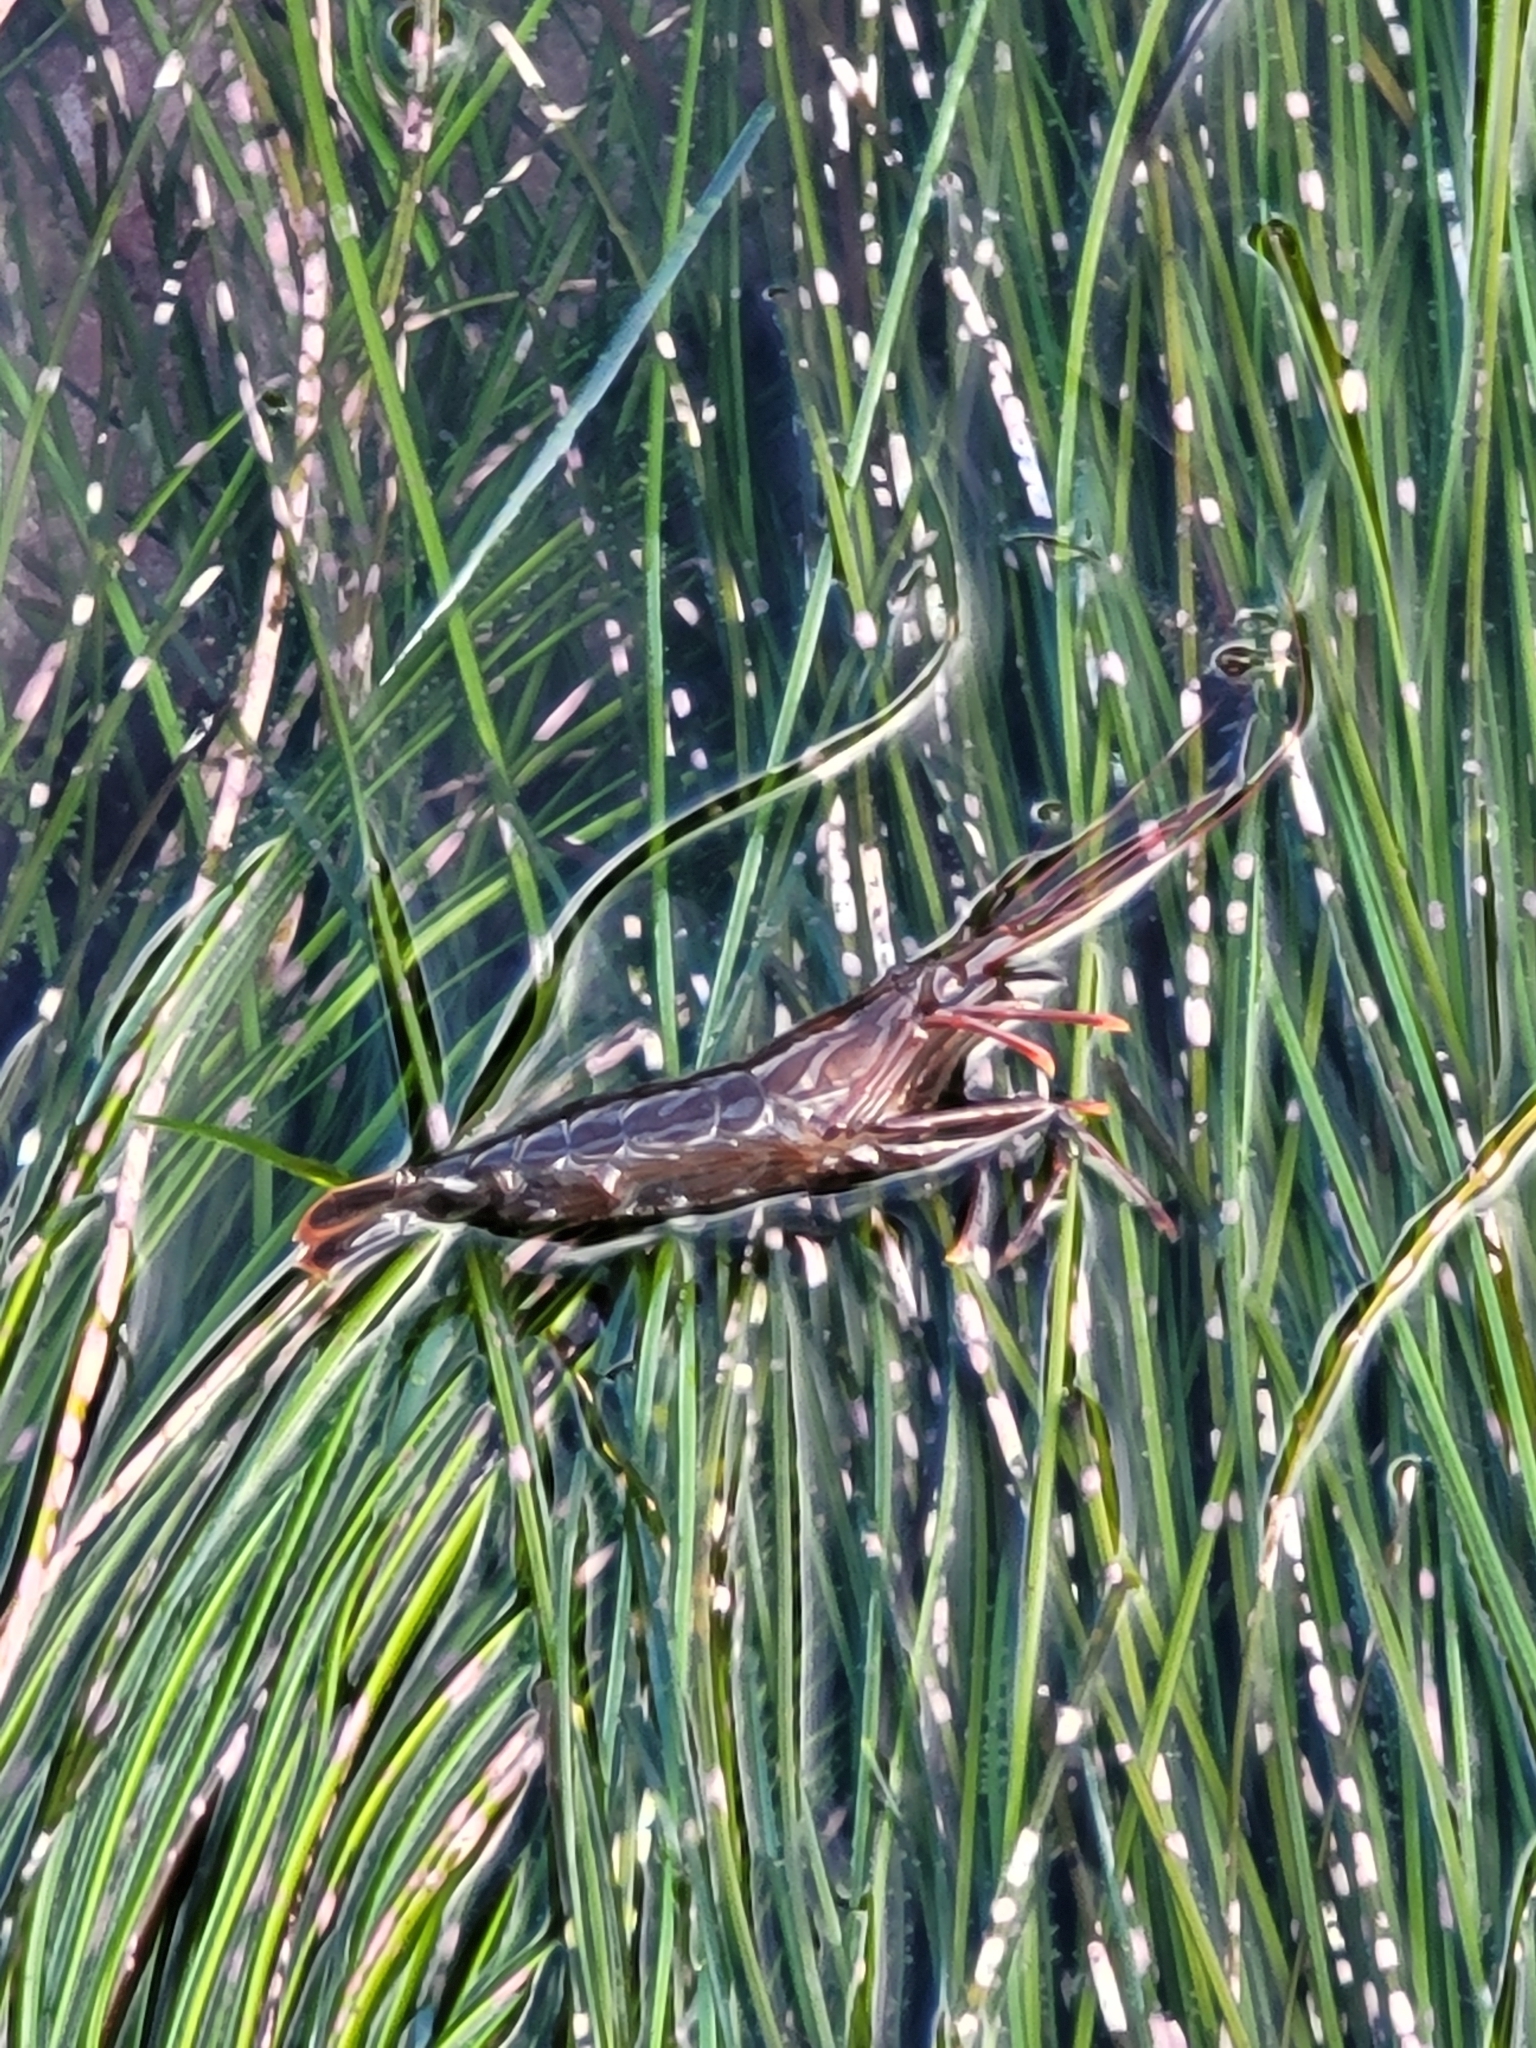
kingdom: Animalia
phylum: Arthropoda
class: Malacostraca
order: Decapoda
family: Lysmatidae
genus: Lysmata
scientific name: Lysmata californica
